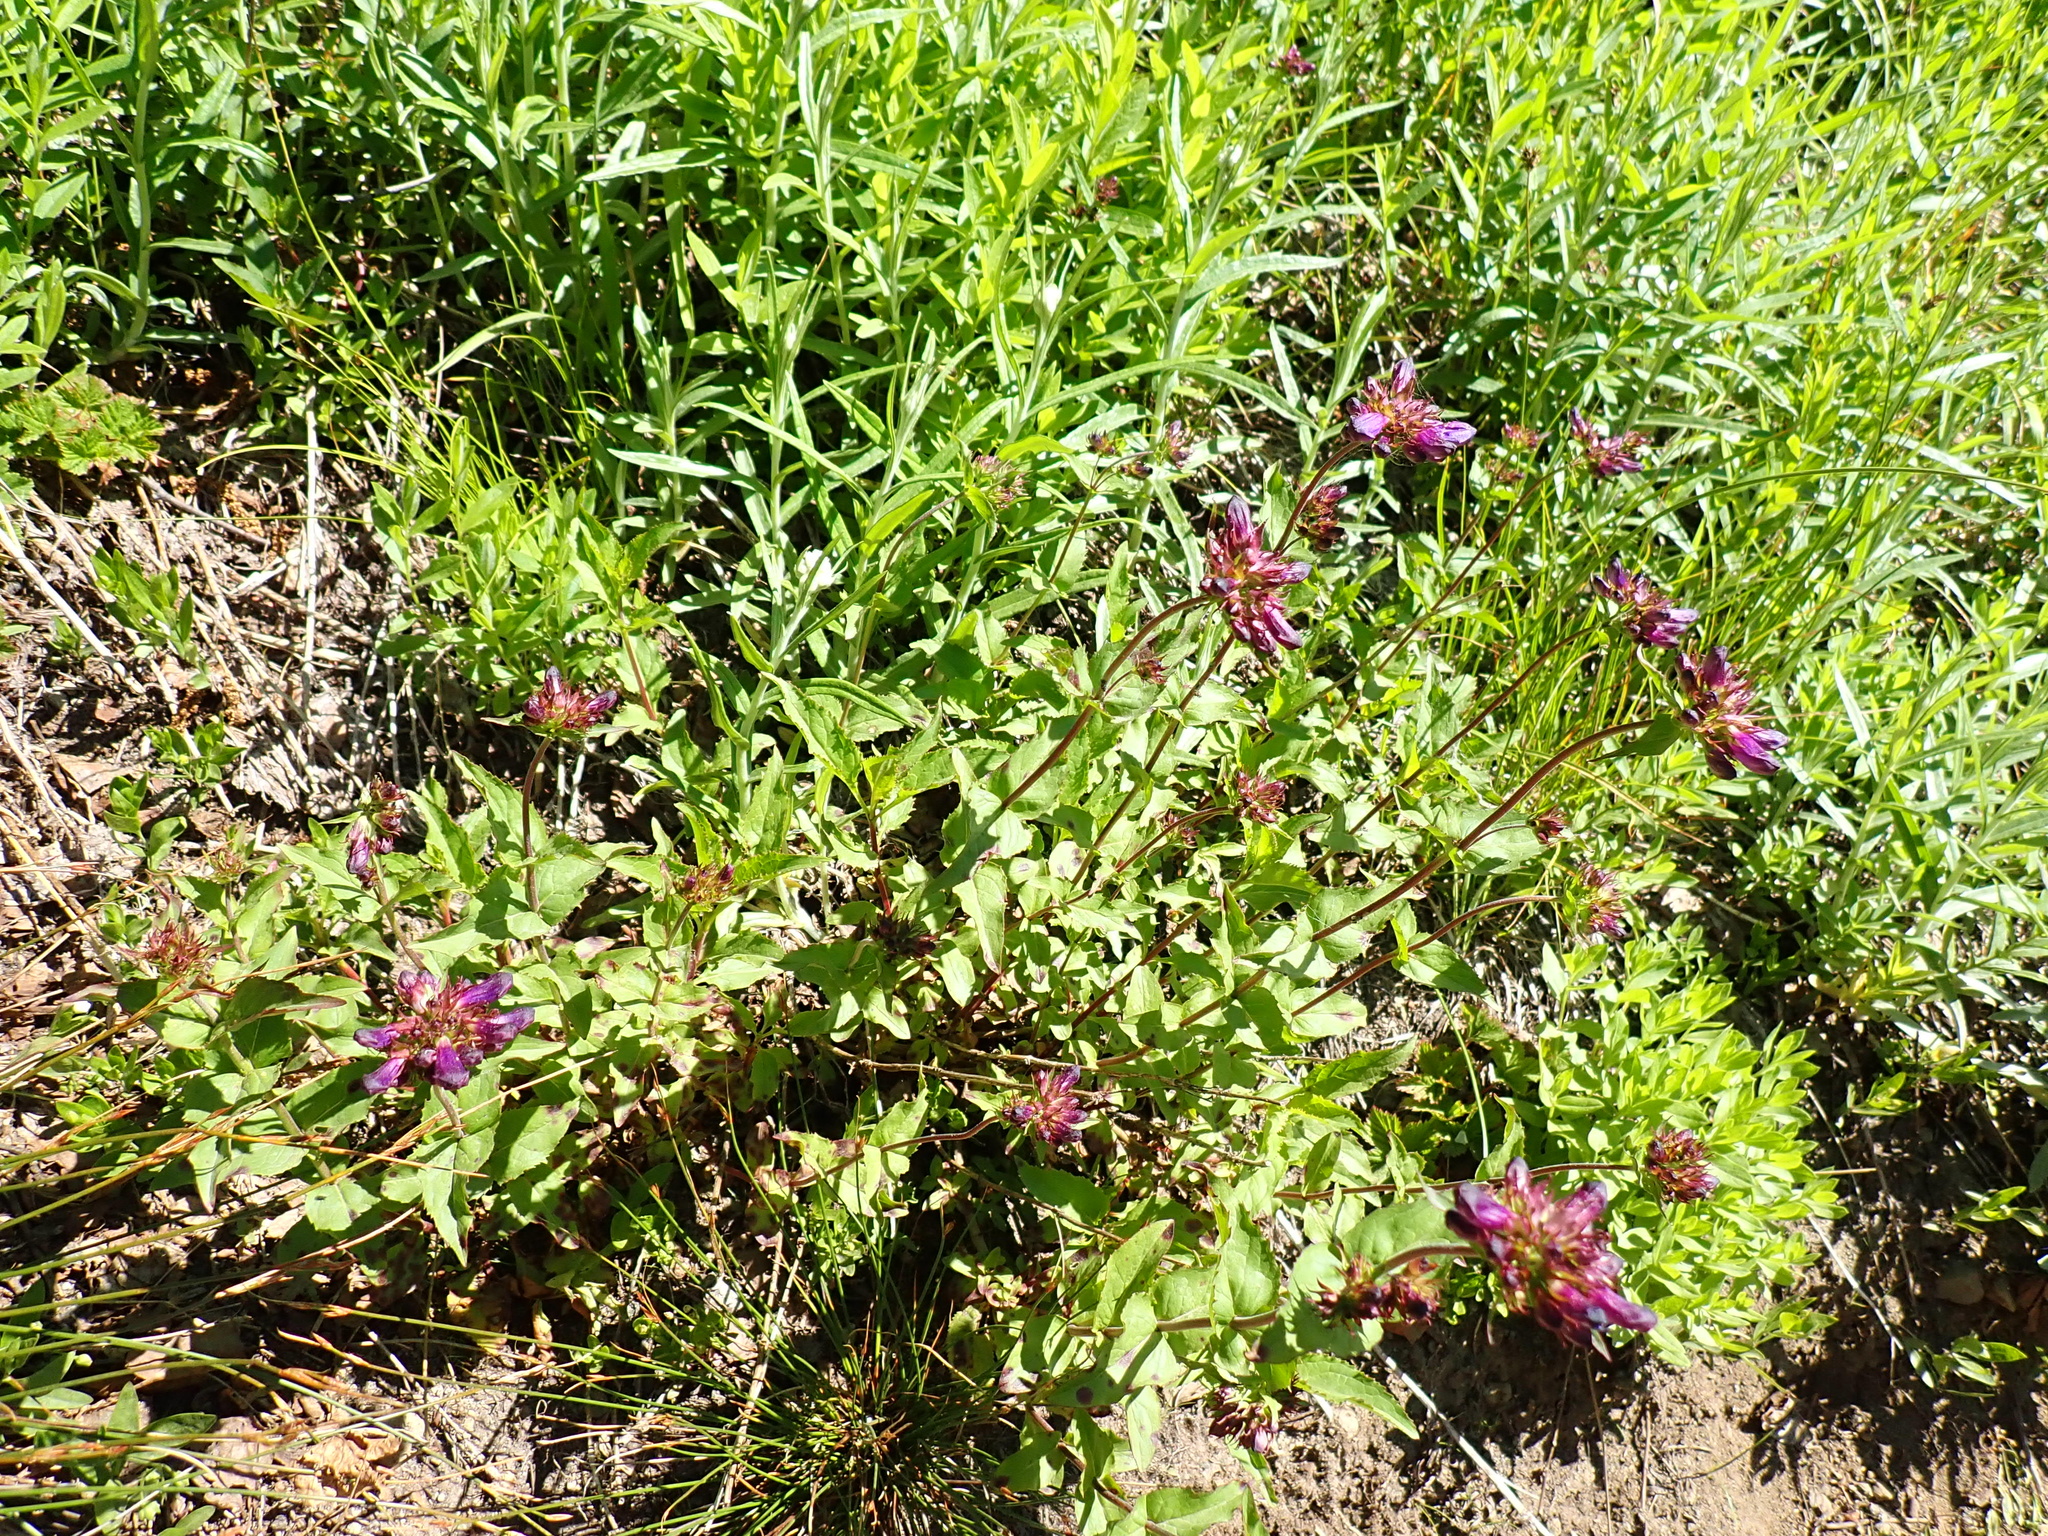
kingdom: Plantae
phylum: Tracheophyta
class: Magnoliopsida
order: Lamiales
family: Plantaginaceae
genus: Penstemon
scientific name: Penstemon serrulatus
